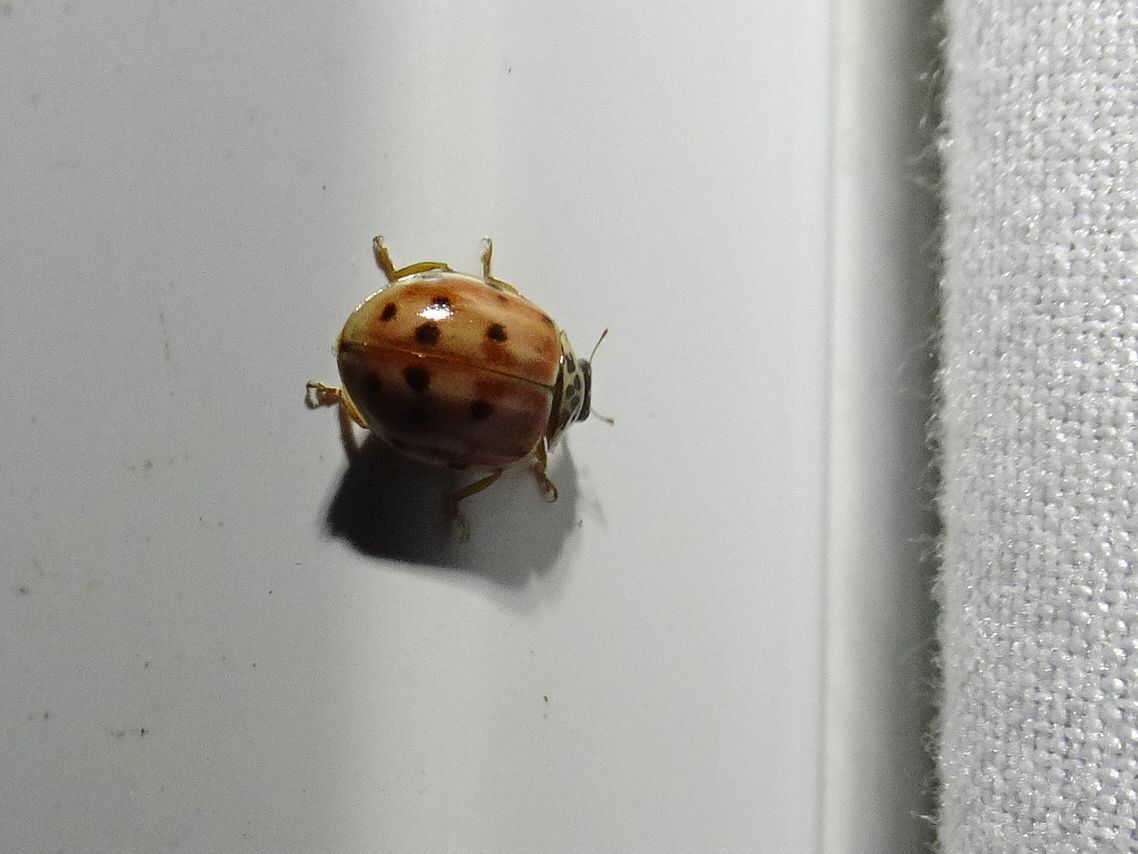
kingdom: Animalia
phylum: Arthropoda
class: Insecta
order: Coleoptera
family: Coccinellidae
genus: Harmonia
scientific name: Harmonia quadripunctata
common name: Cream-streaked ladybird
